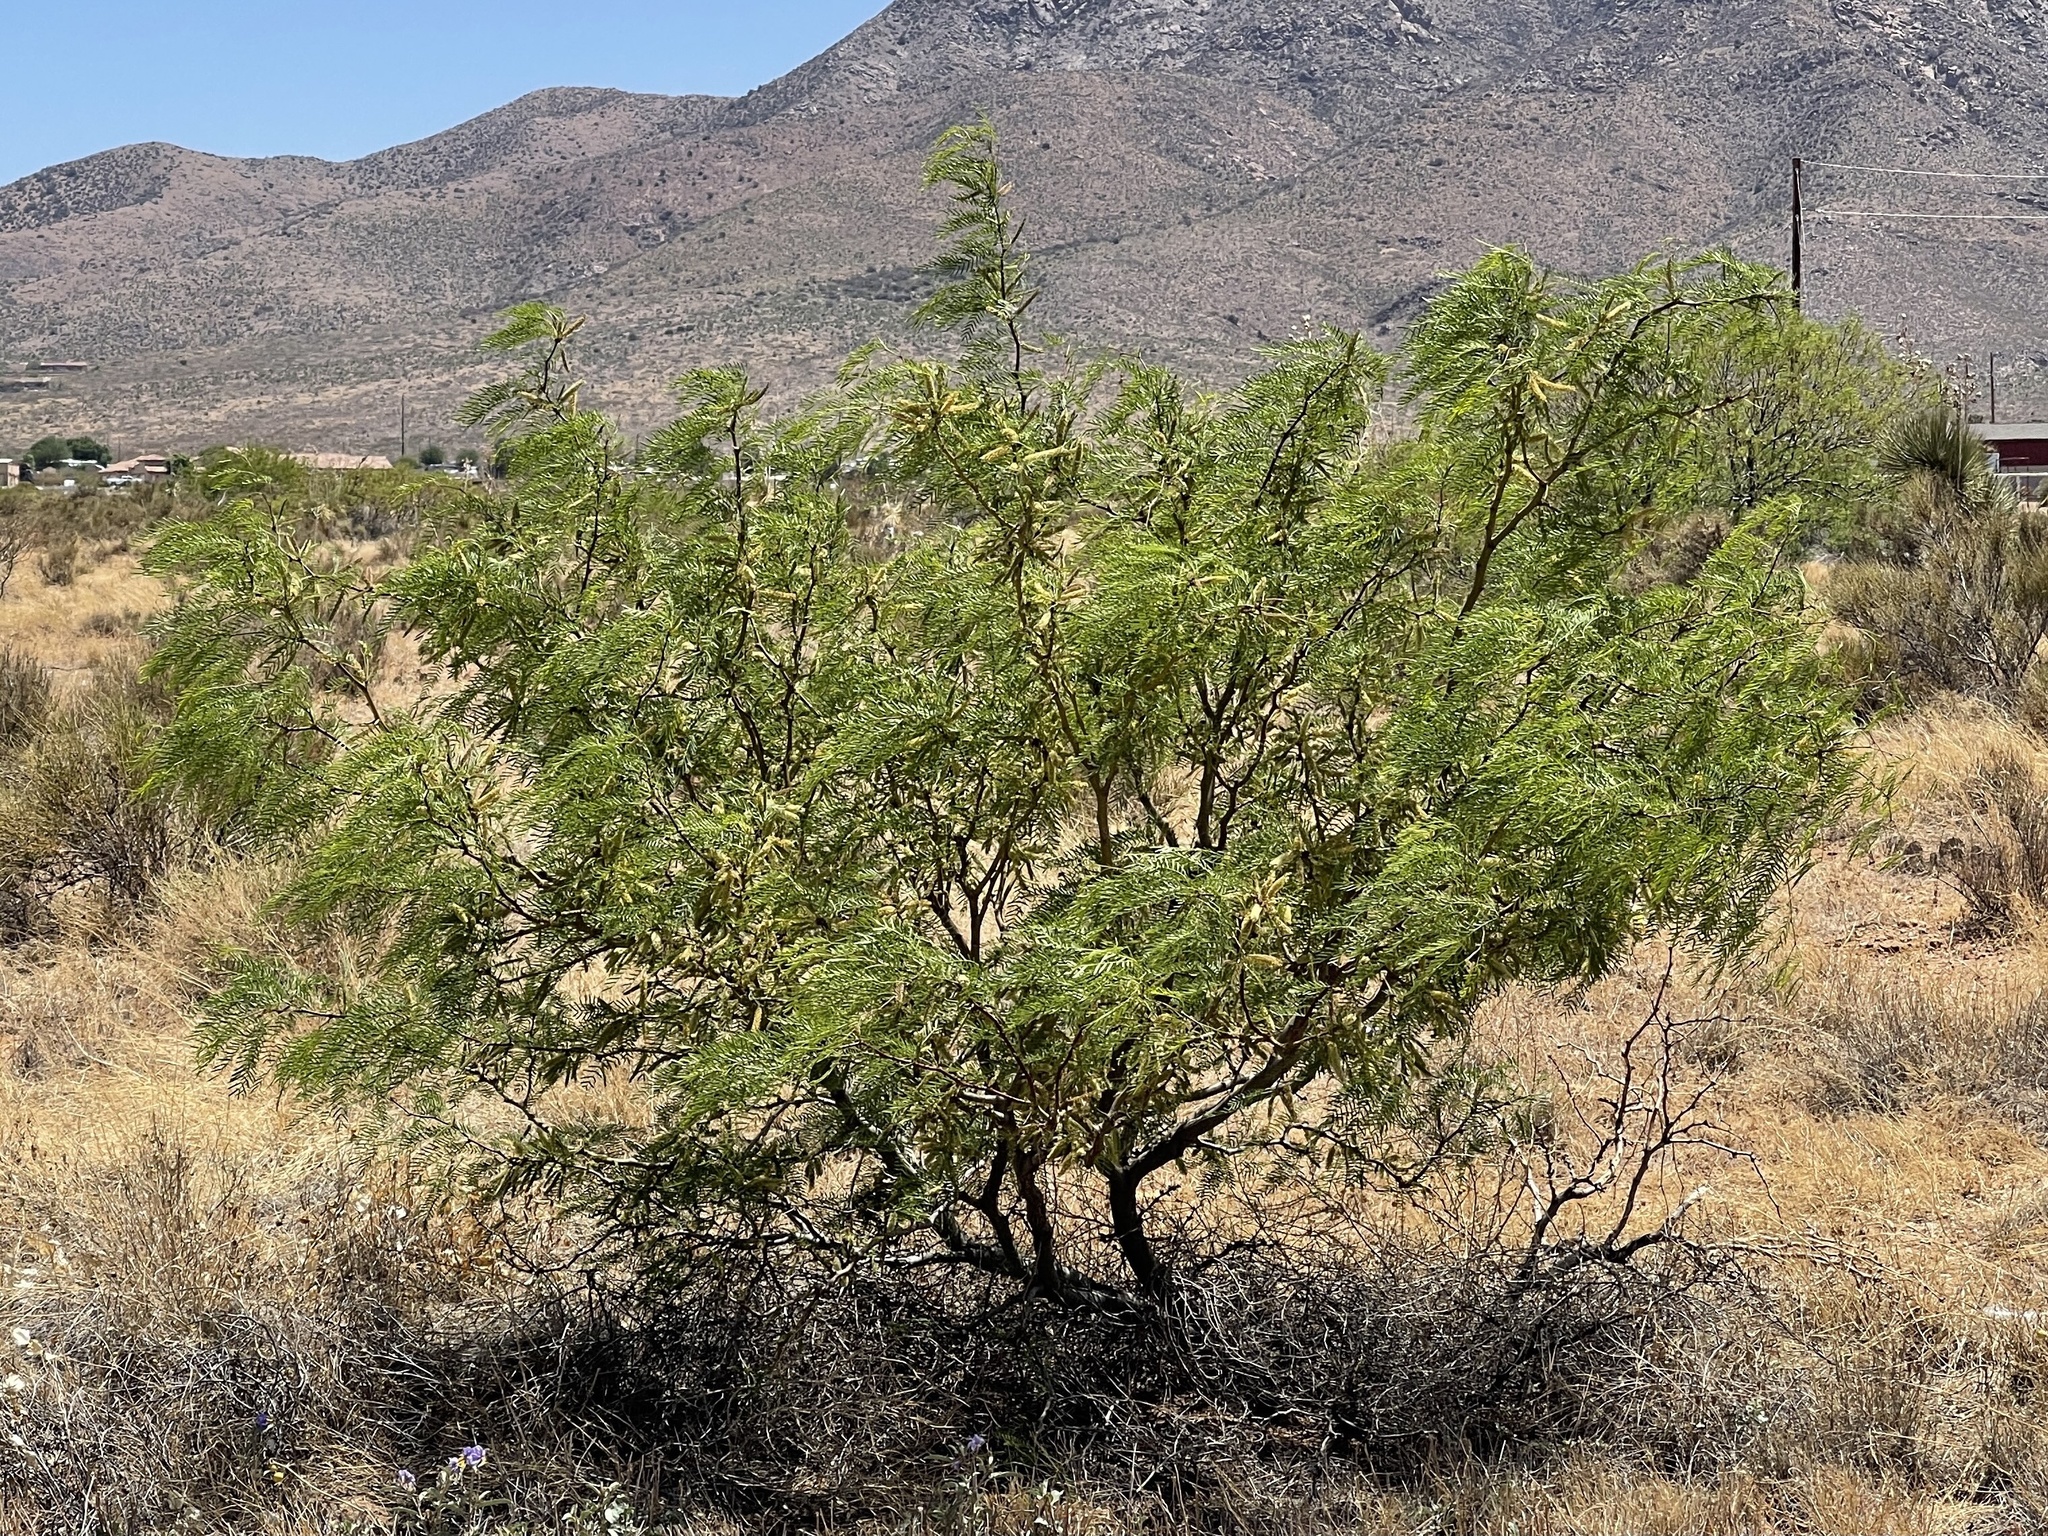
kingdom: Plantae
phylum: Tracheophyta
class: Magnoliopsida
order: Fabales
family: Fabaceae
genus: Prosopis
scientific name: Prosopis glandulosa
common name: Honey mesquite
